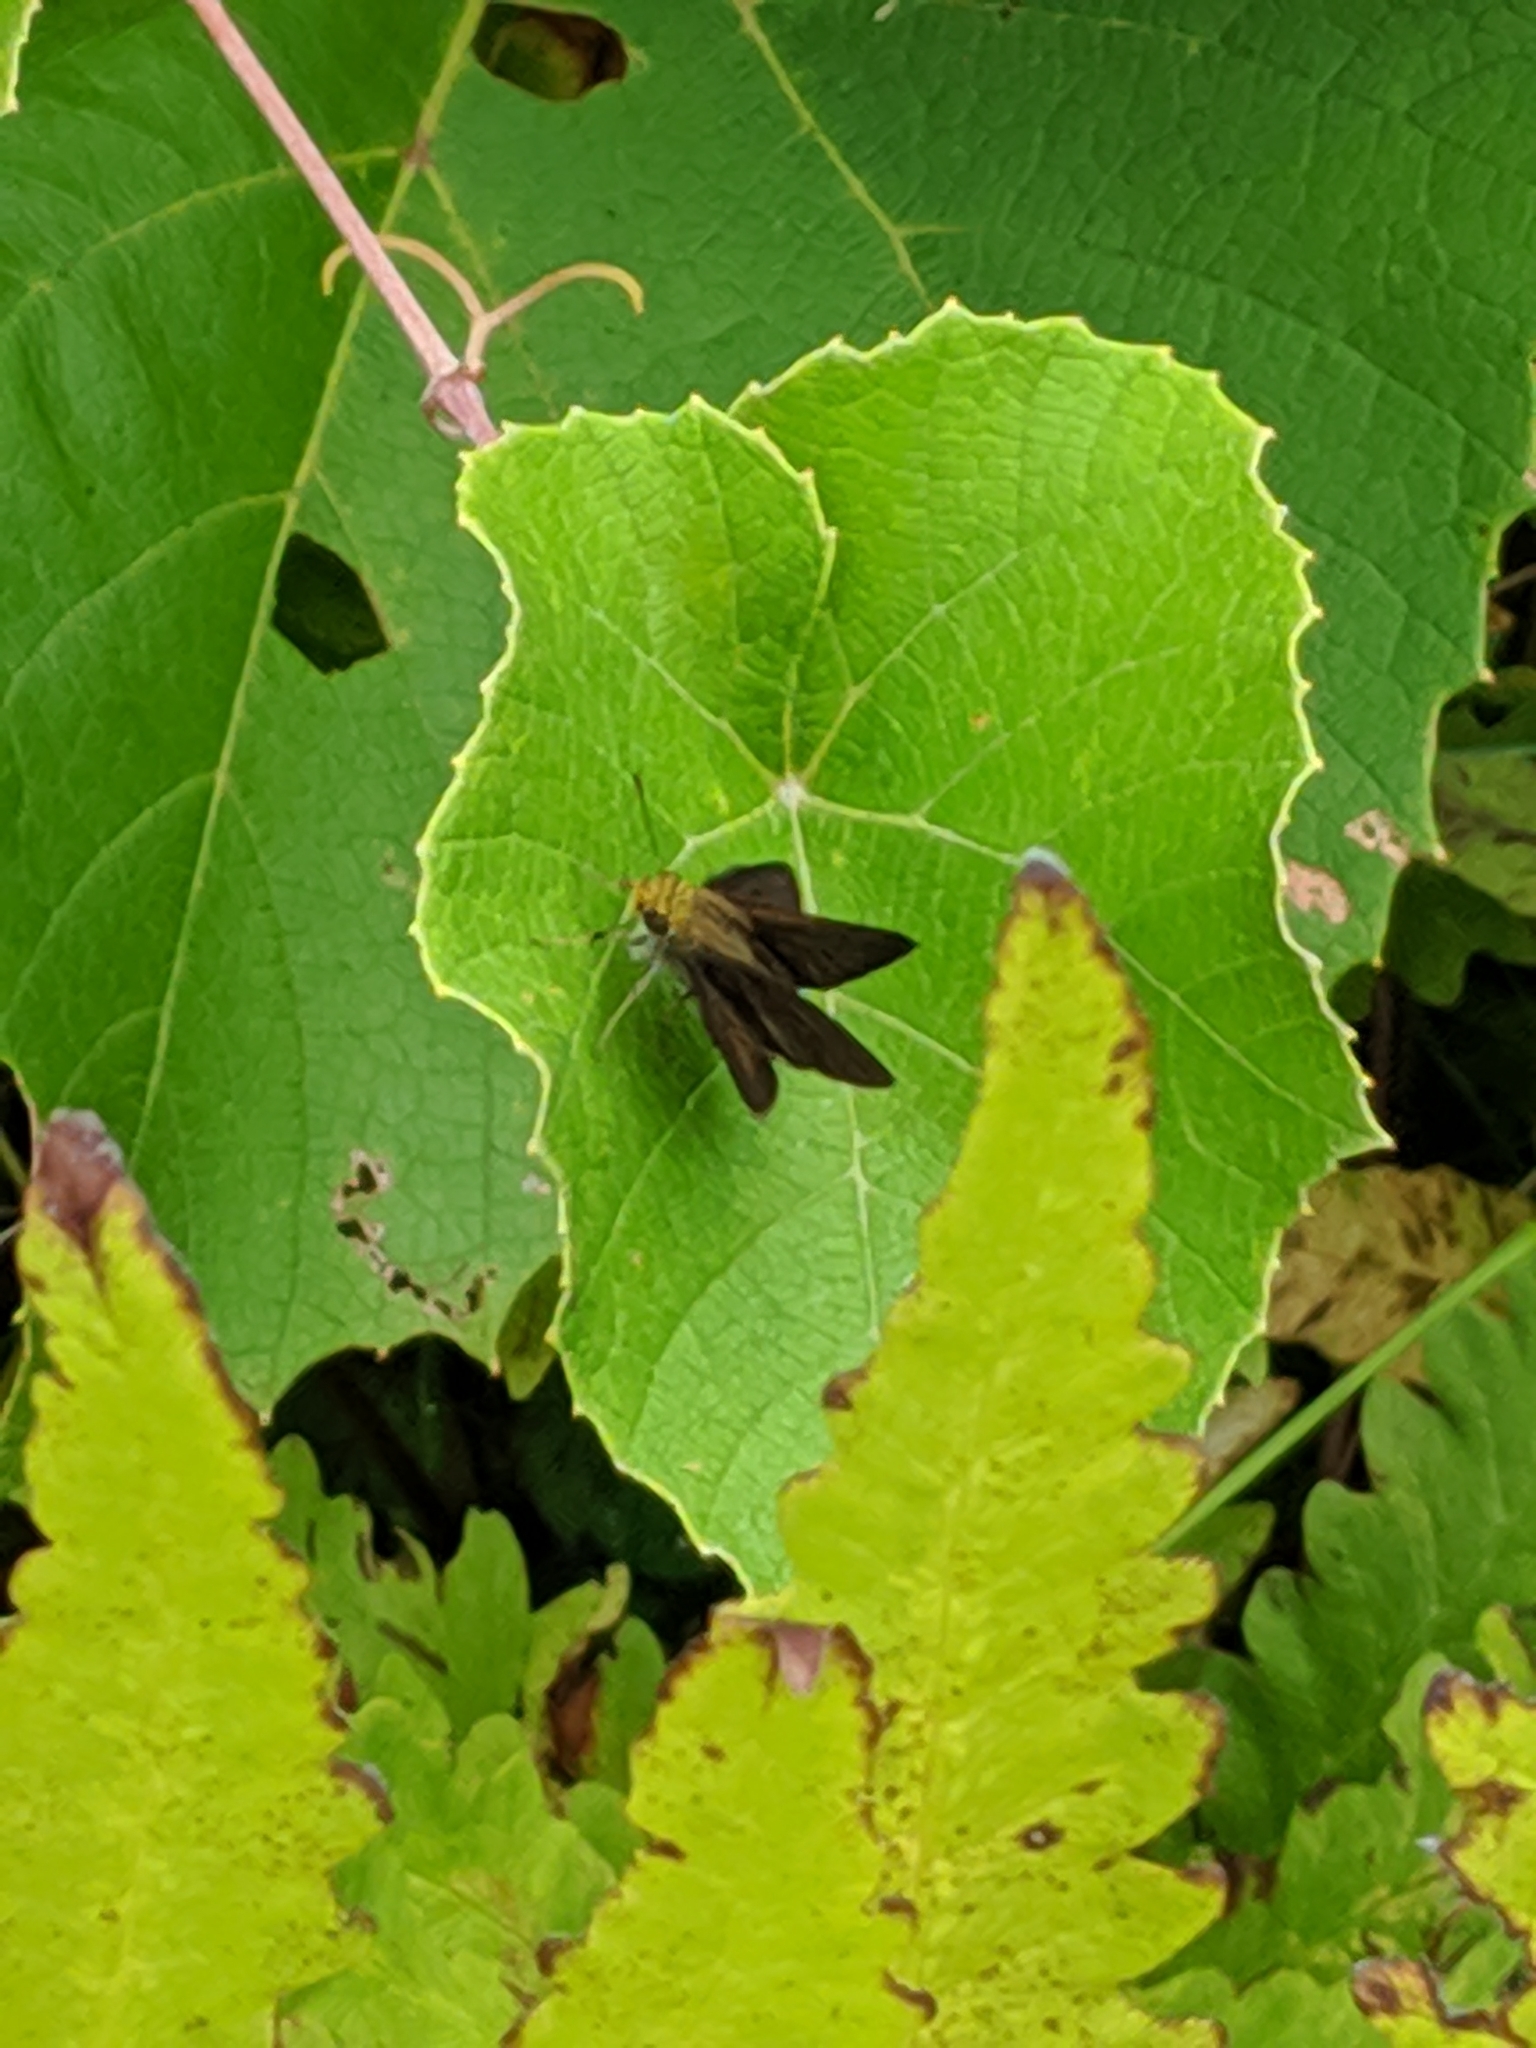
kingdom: Animalia
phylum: Arthropoda
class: Insecta
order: Lepidoptera
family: Hesperiidae
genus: Euphyes
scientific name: Euphyes vestris
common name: Dun skipper
